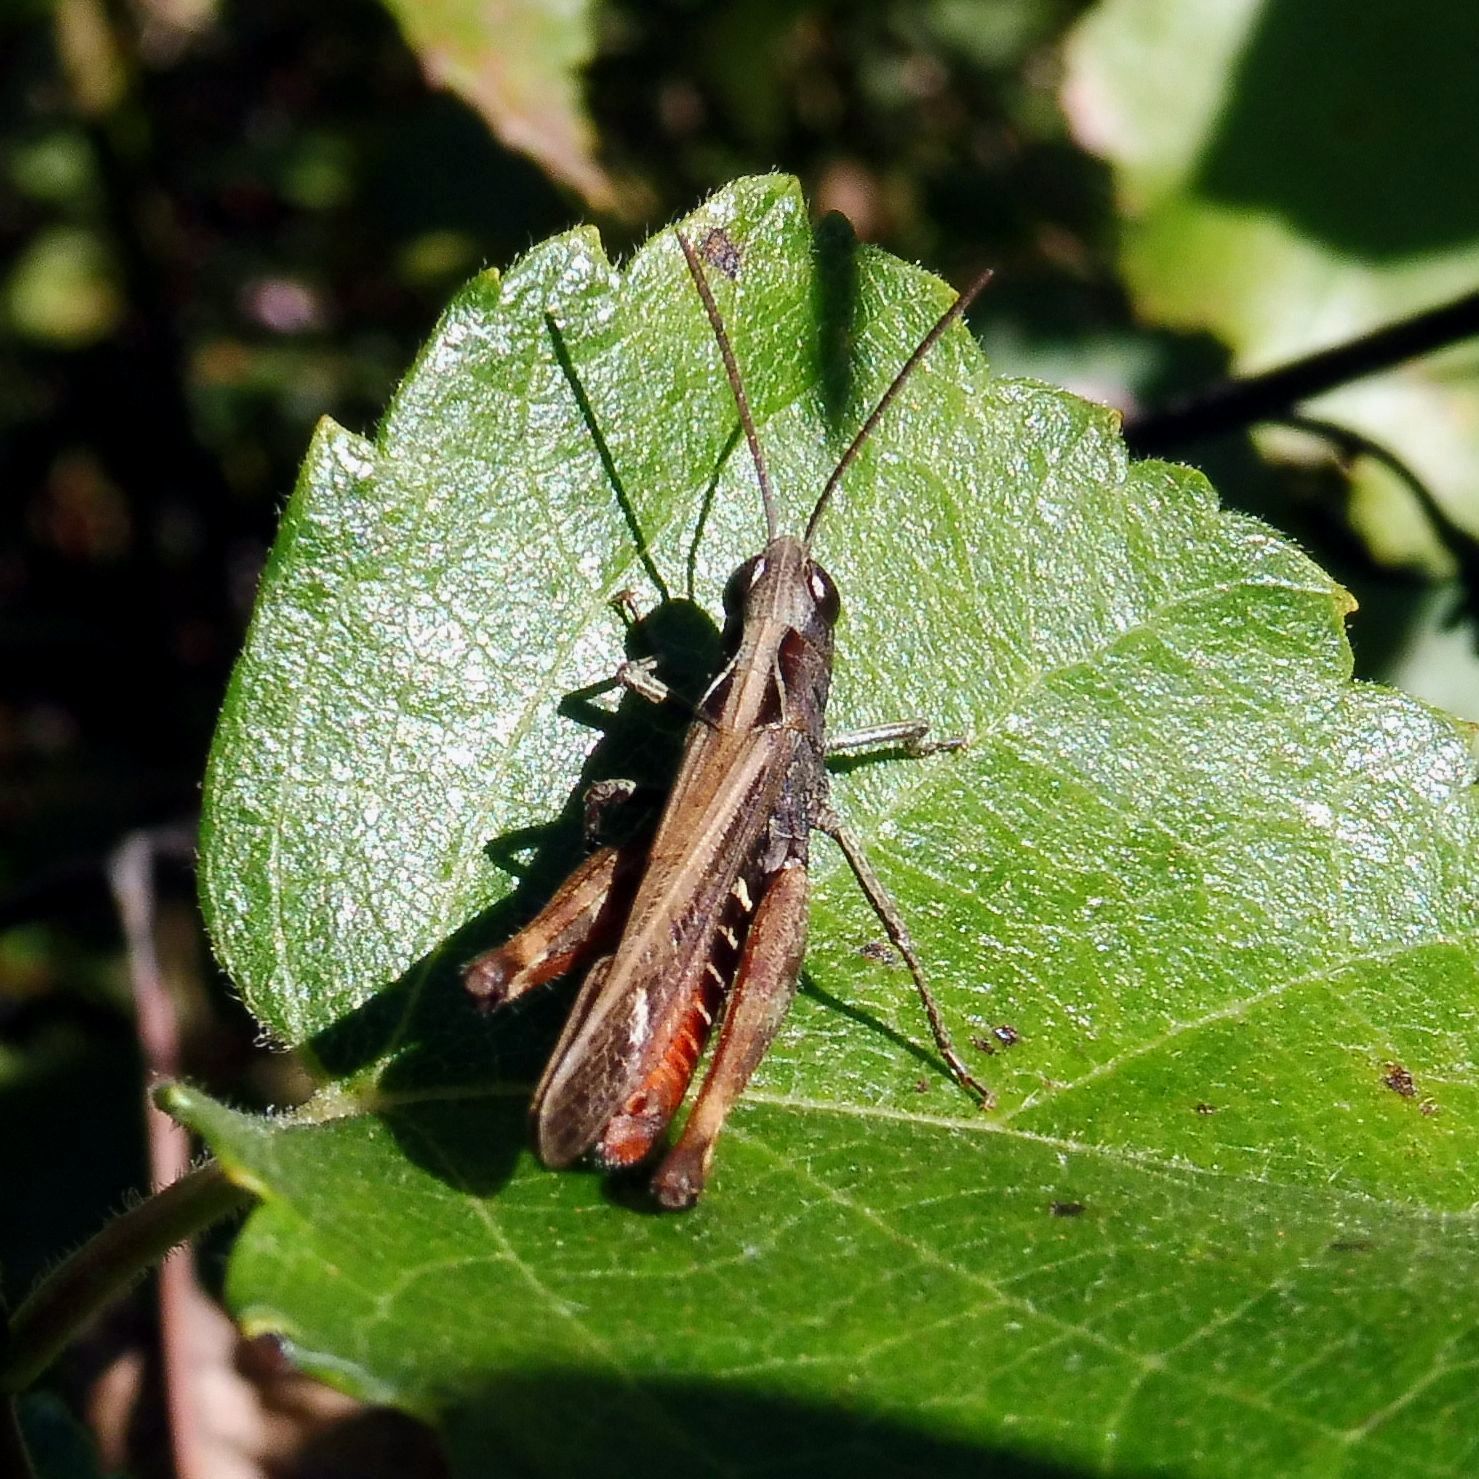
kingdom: Animalia
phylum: Arthropoda
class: Insecta
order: Orthoptera
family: Acrididae
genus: Omocestus
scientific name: Omocestus rufipes
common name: Woodland grasshopper
